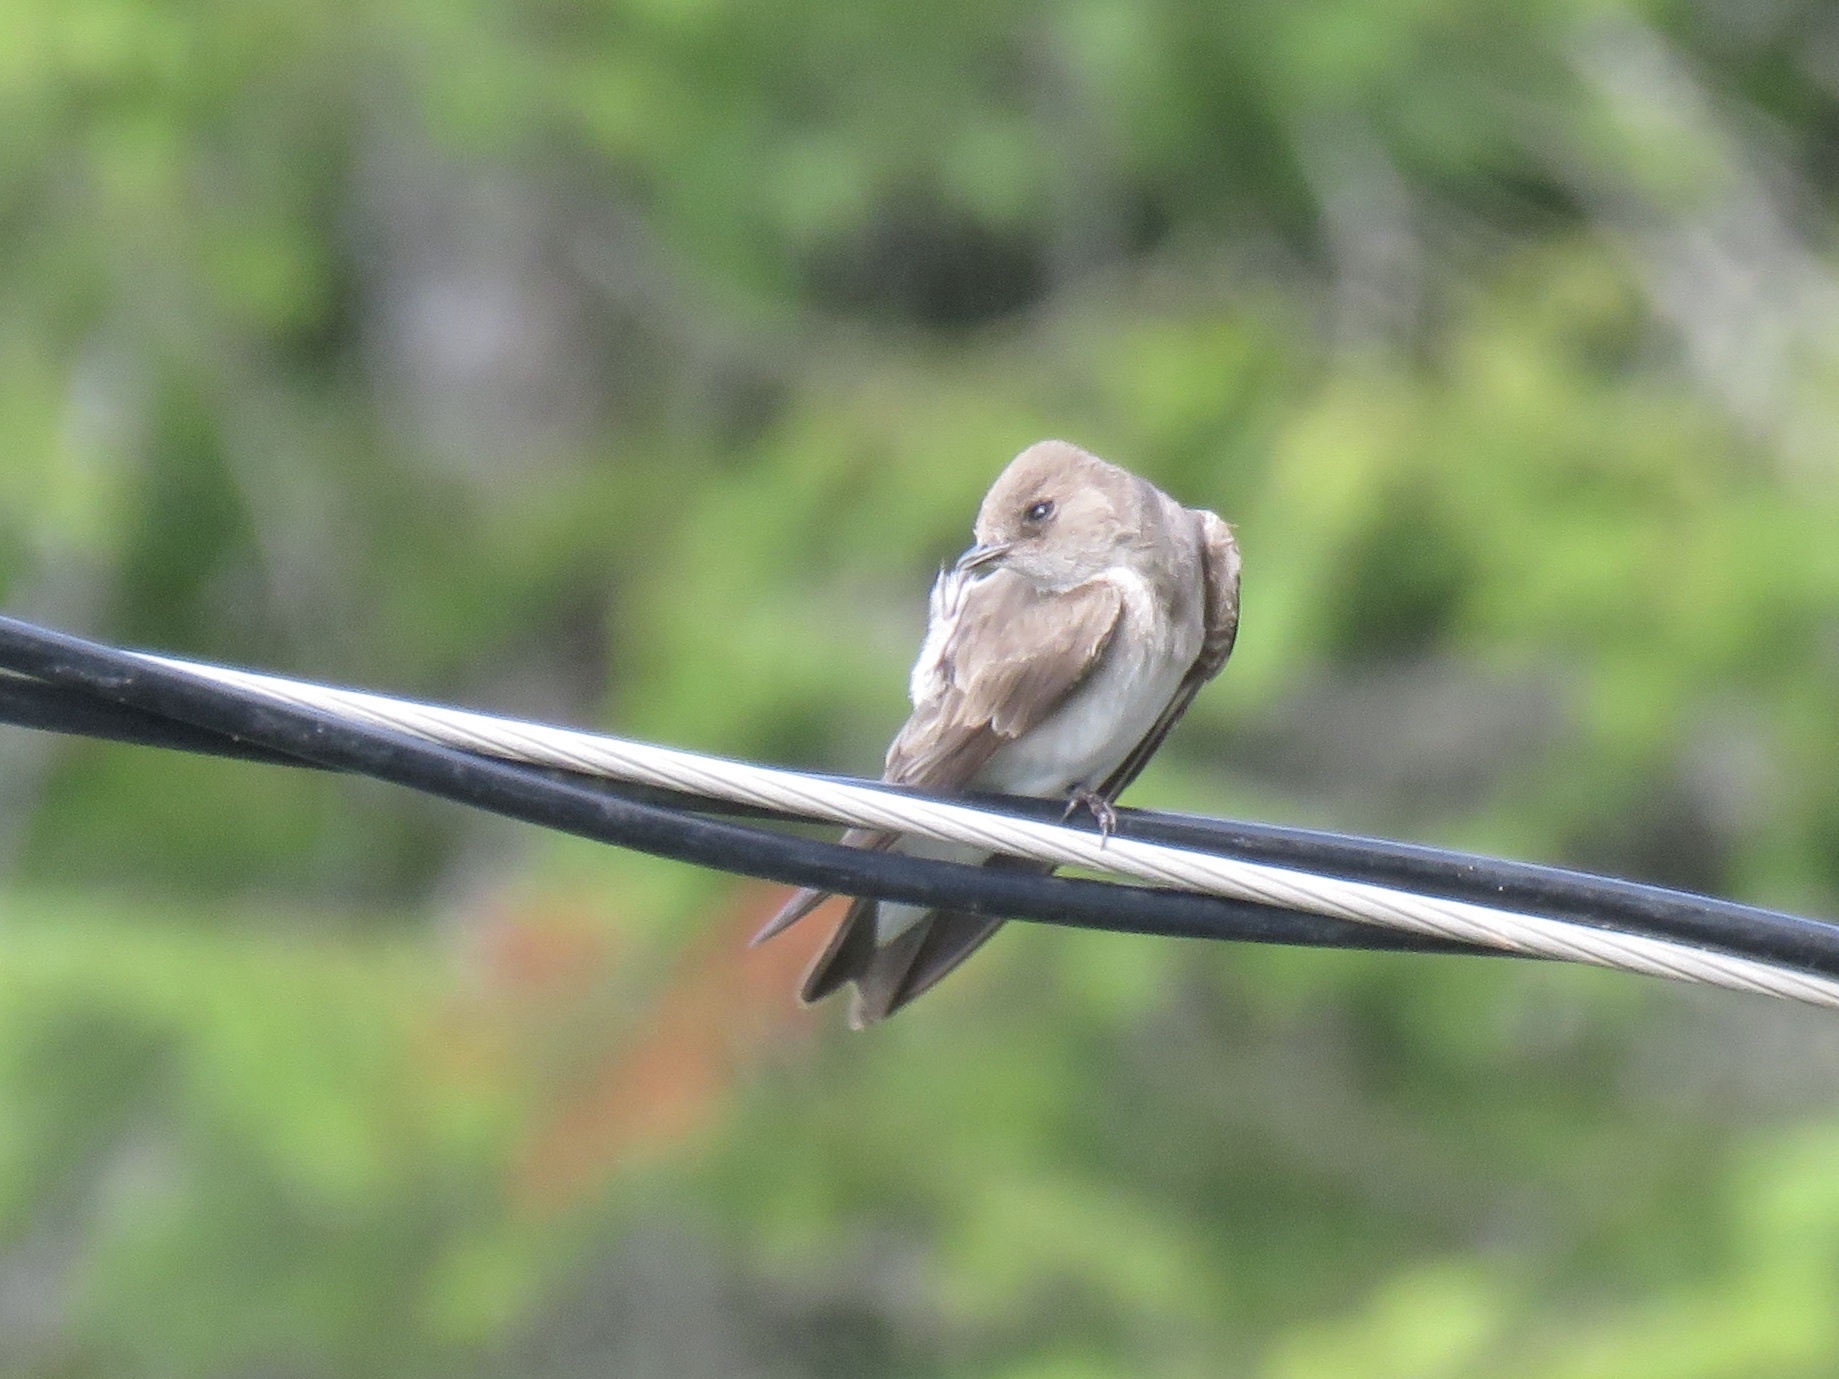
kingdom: Animalia
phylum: Chordata
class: Aves
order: Passeriformes
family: Hirundinidae
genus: Stelgidopteryx
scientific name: Stelgidopteryx serripennis
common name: Northern rough-winged swallow
